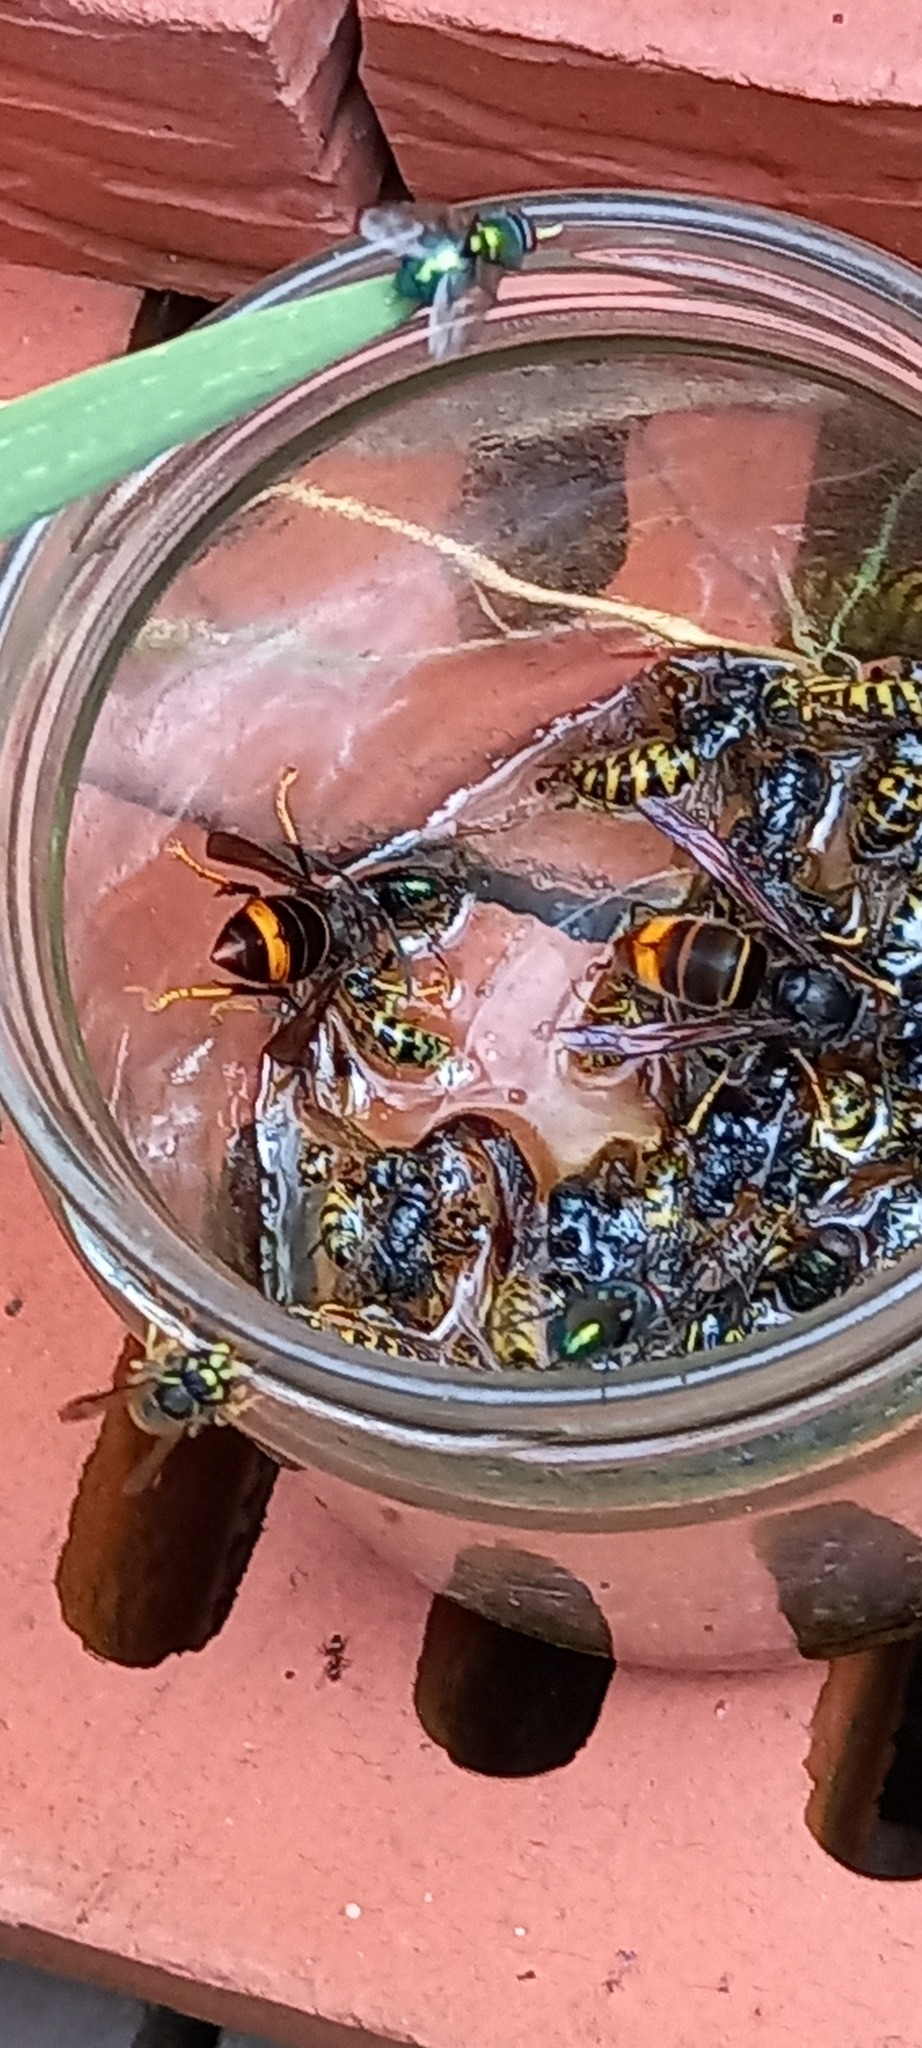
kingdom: Animalia
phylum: Arthropoda
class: Insecta
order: Hymenoptera
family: Vespidae
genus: Vespa
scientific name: Vespa velutina
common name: Asian hornet
